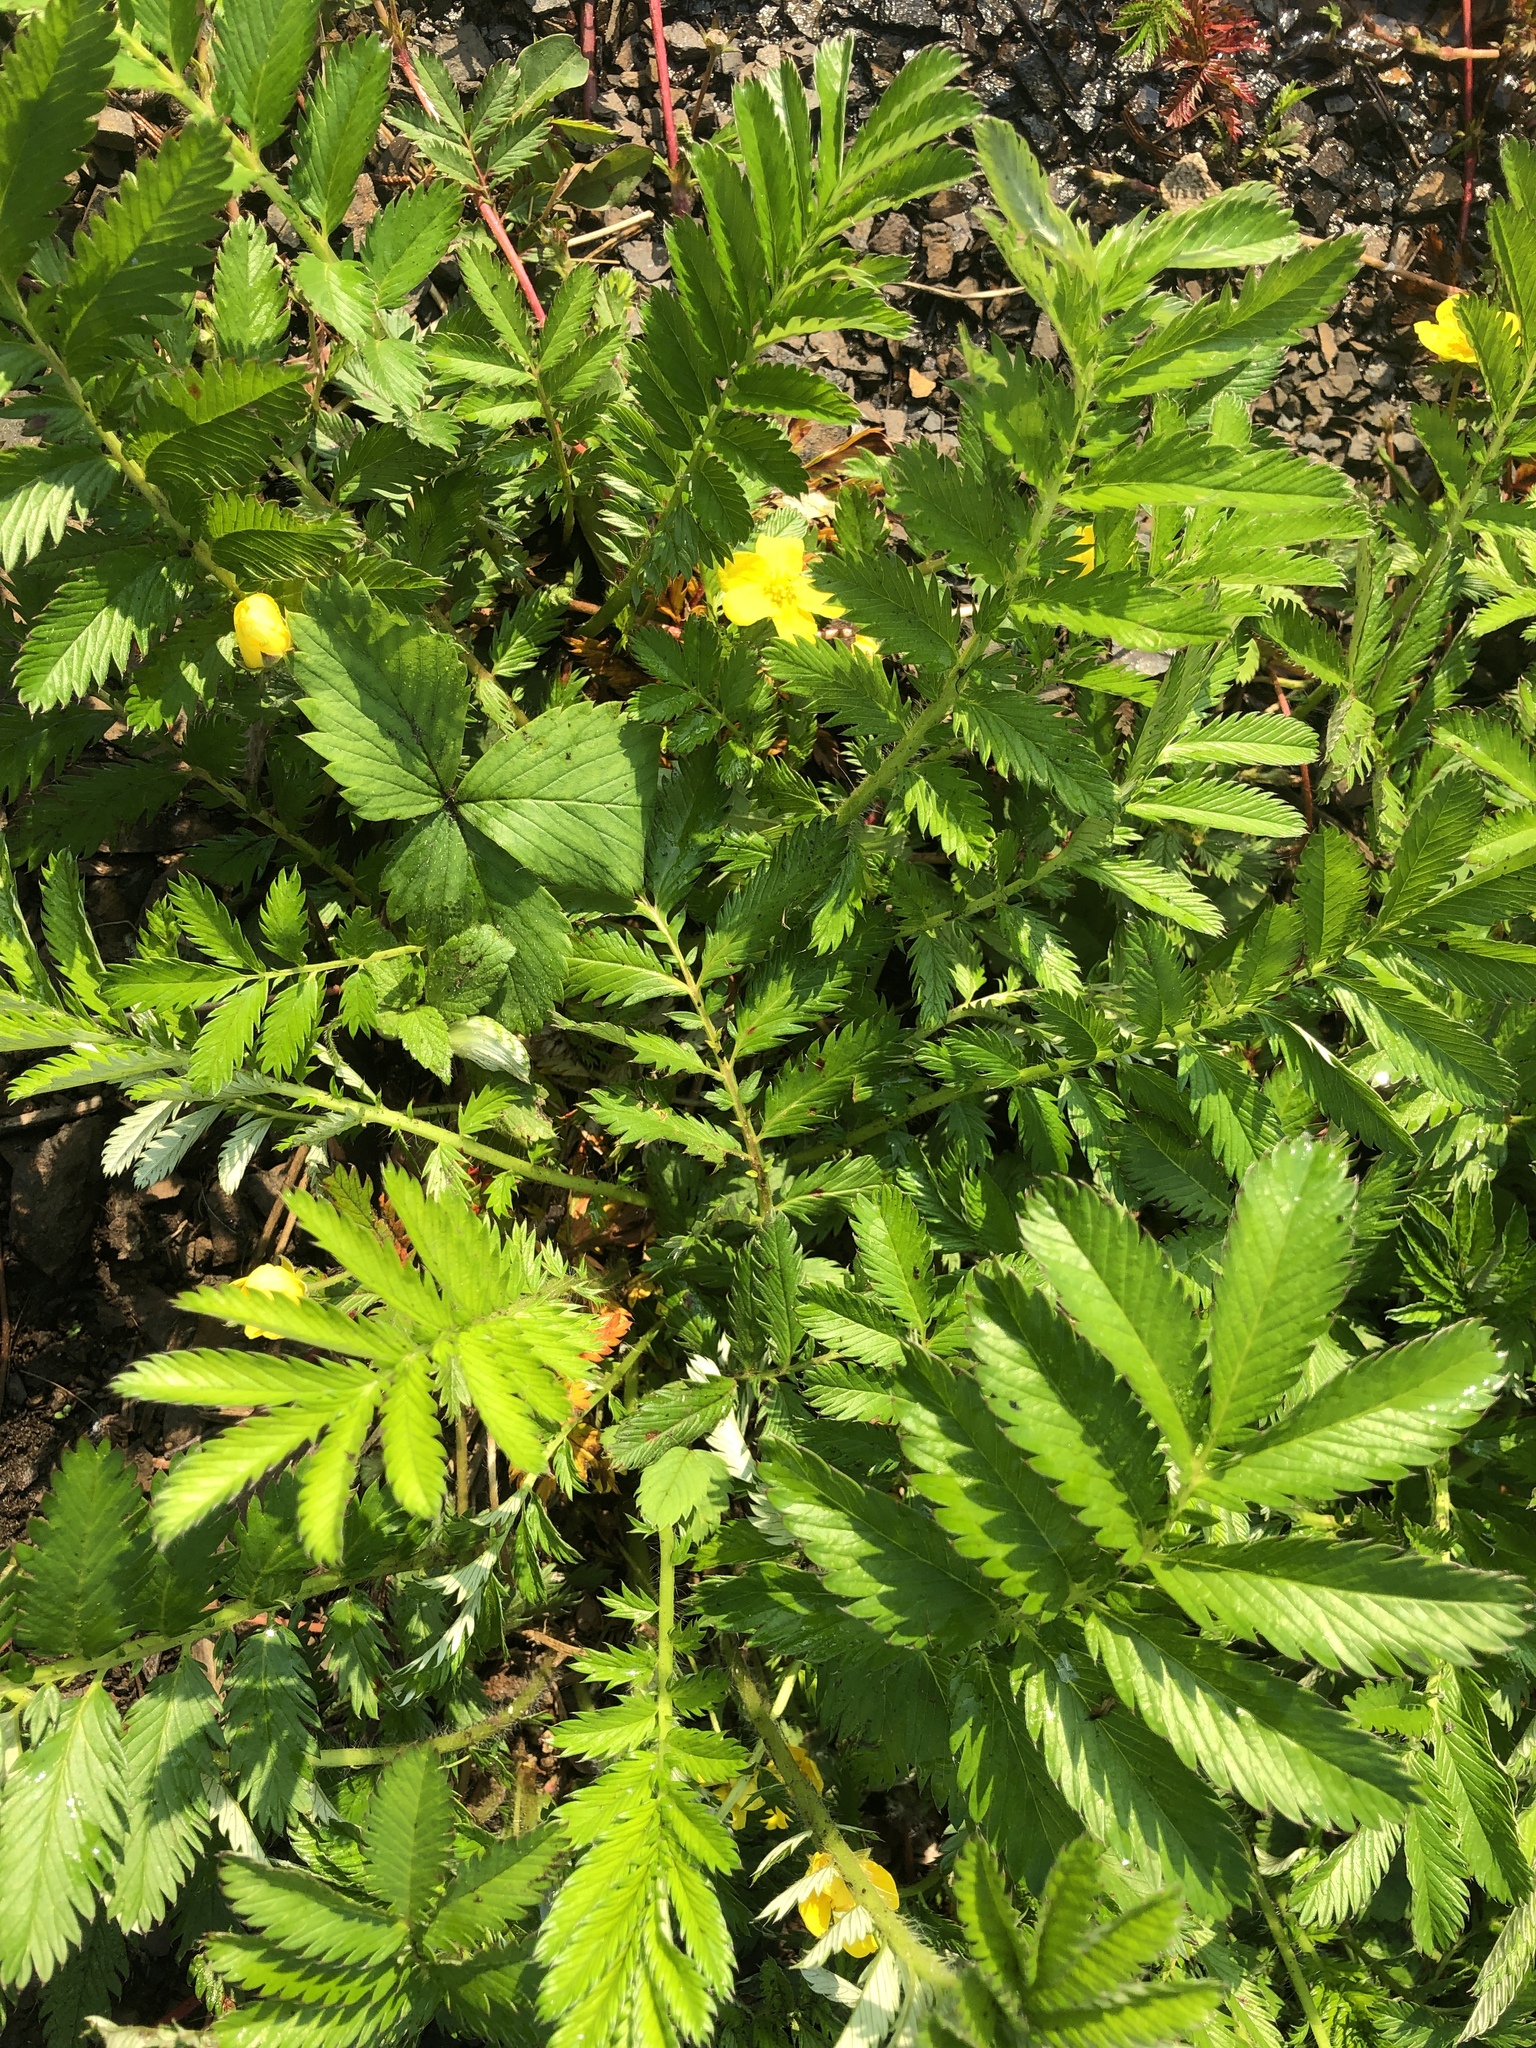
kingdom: Plantae
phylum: Tracheophyta
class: Magnoliopsida
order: Rosales
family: Rosaceae
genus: Argentina
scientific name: Argentina anserina
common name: Common silverweed
